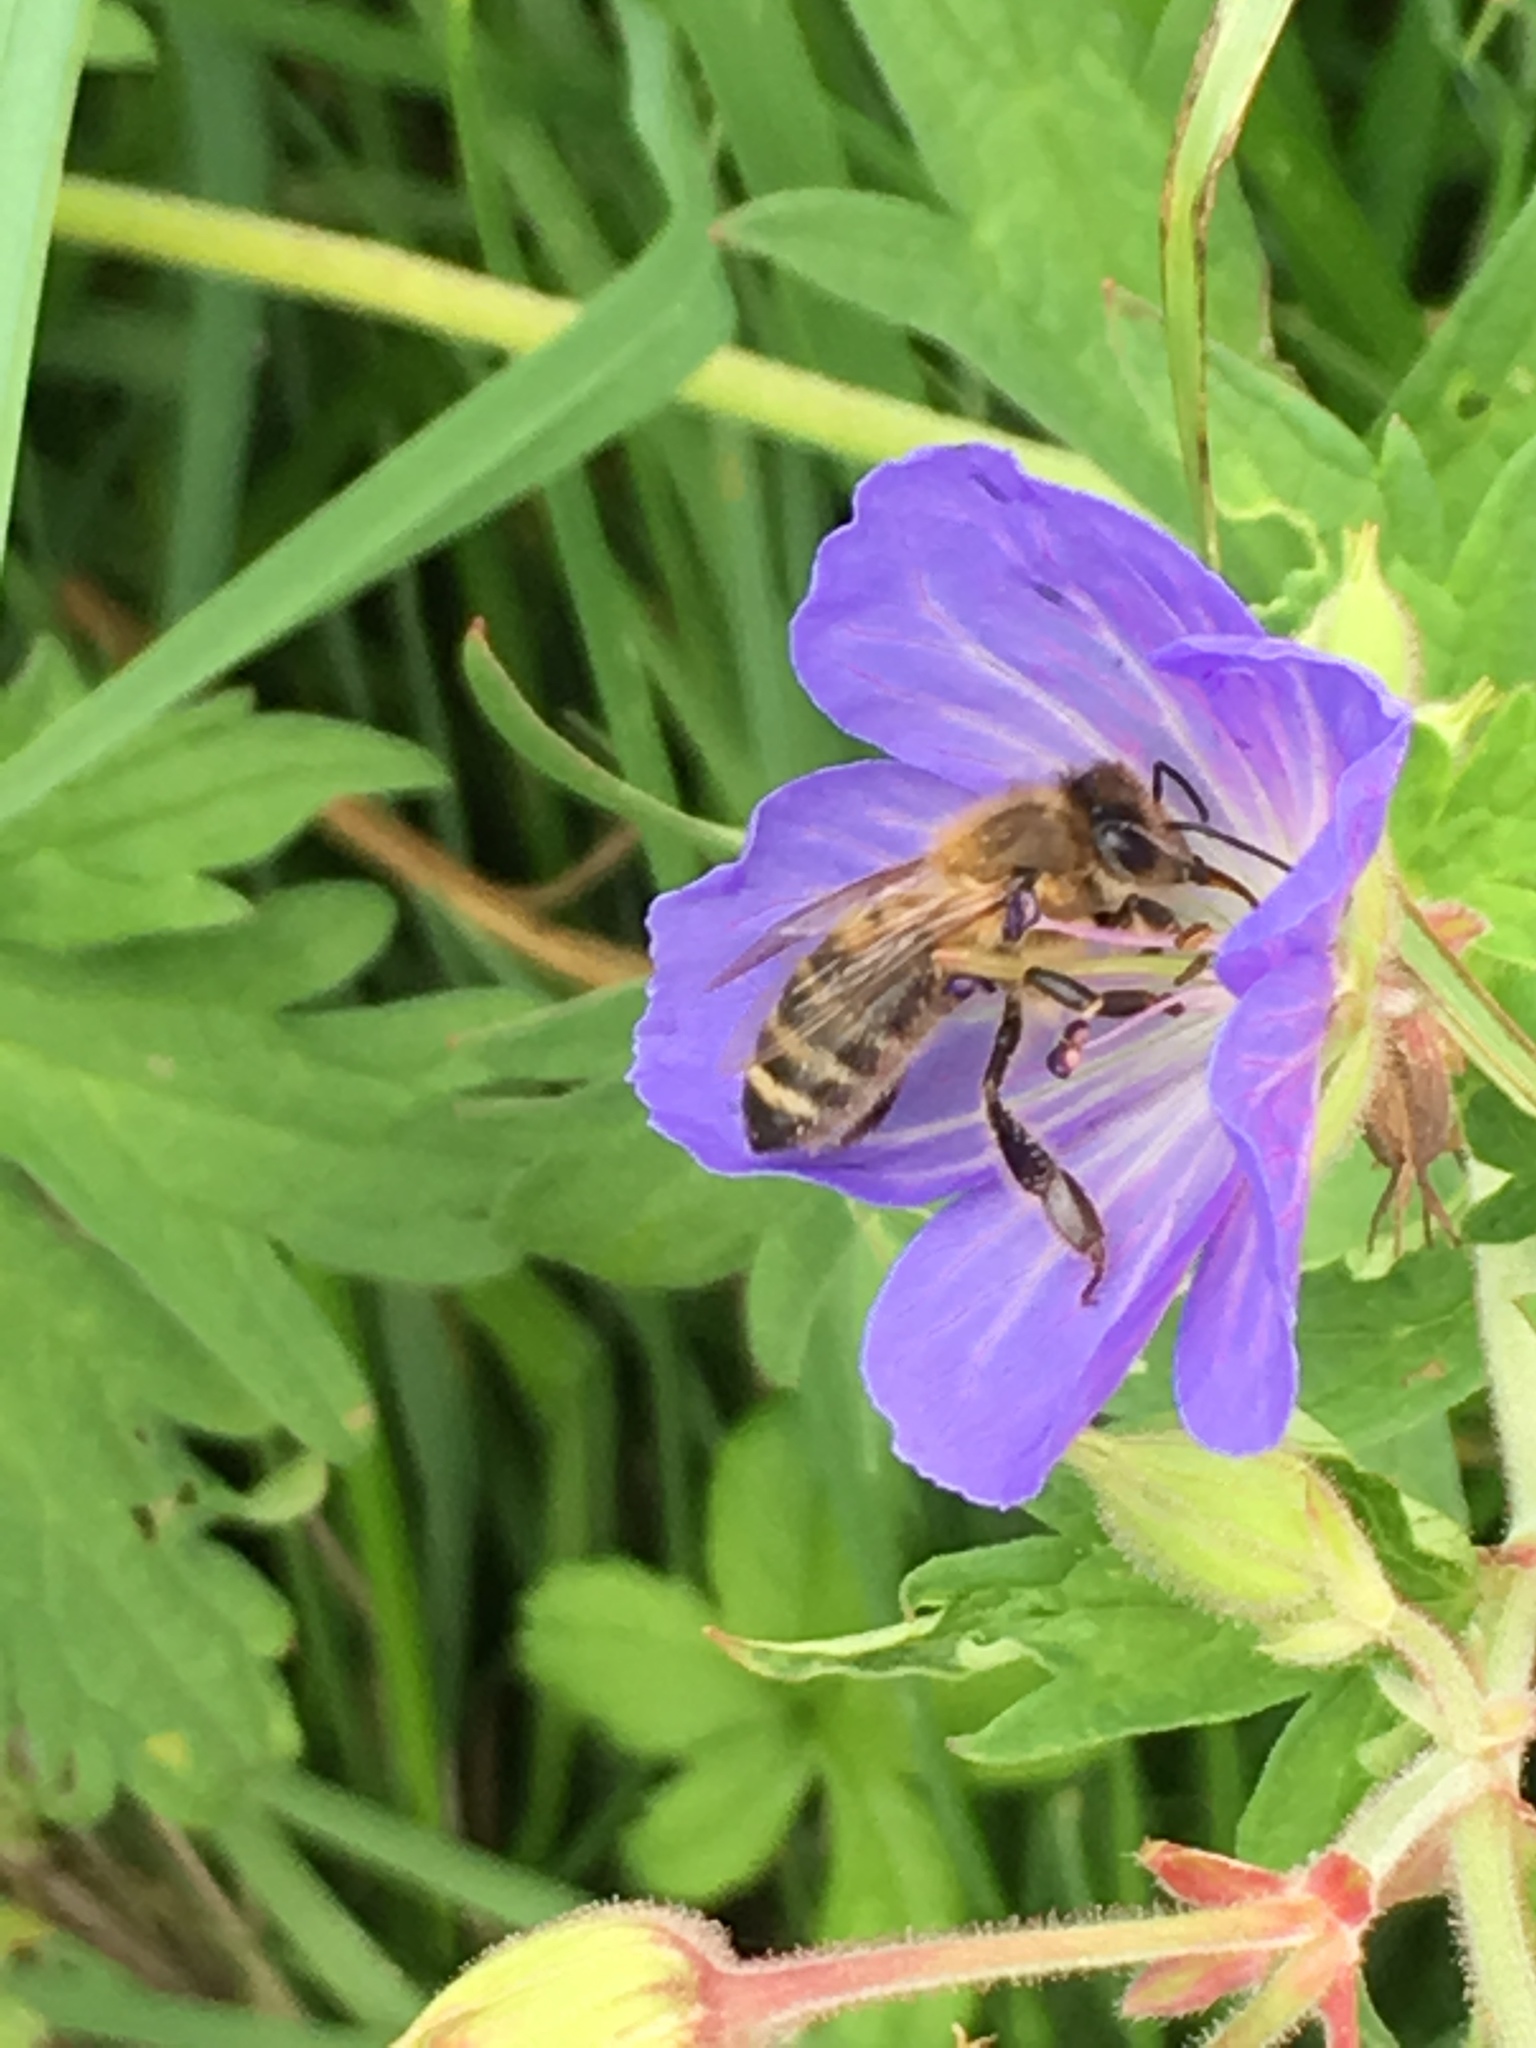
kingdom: Animalia
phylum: Arthropoda
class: Insecta
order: Hymenoptera
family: Apidae
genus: Apis
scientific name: Apis mellifera
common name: Honey bee
